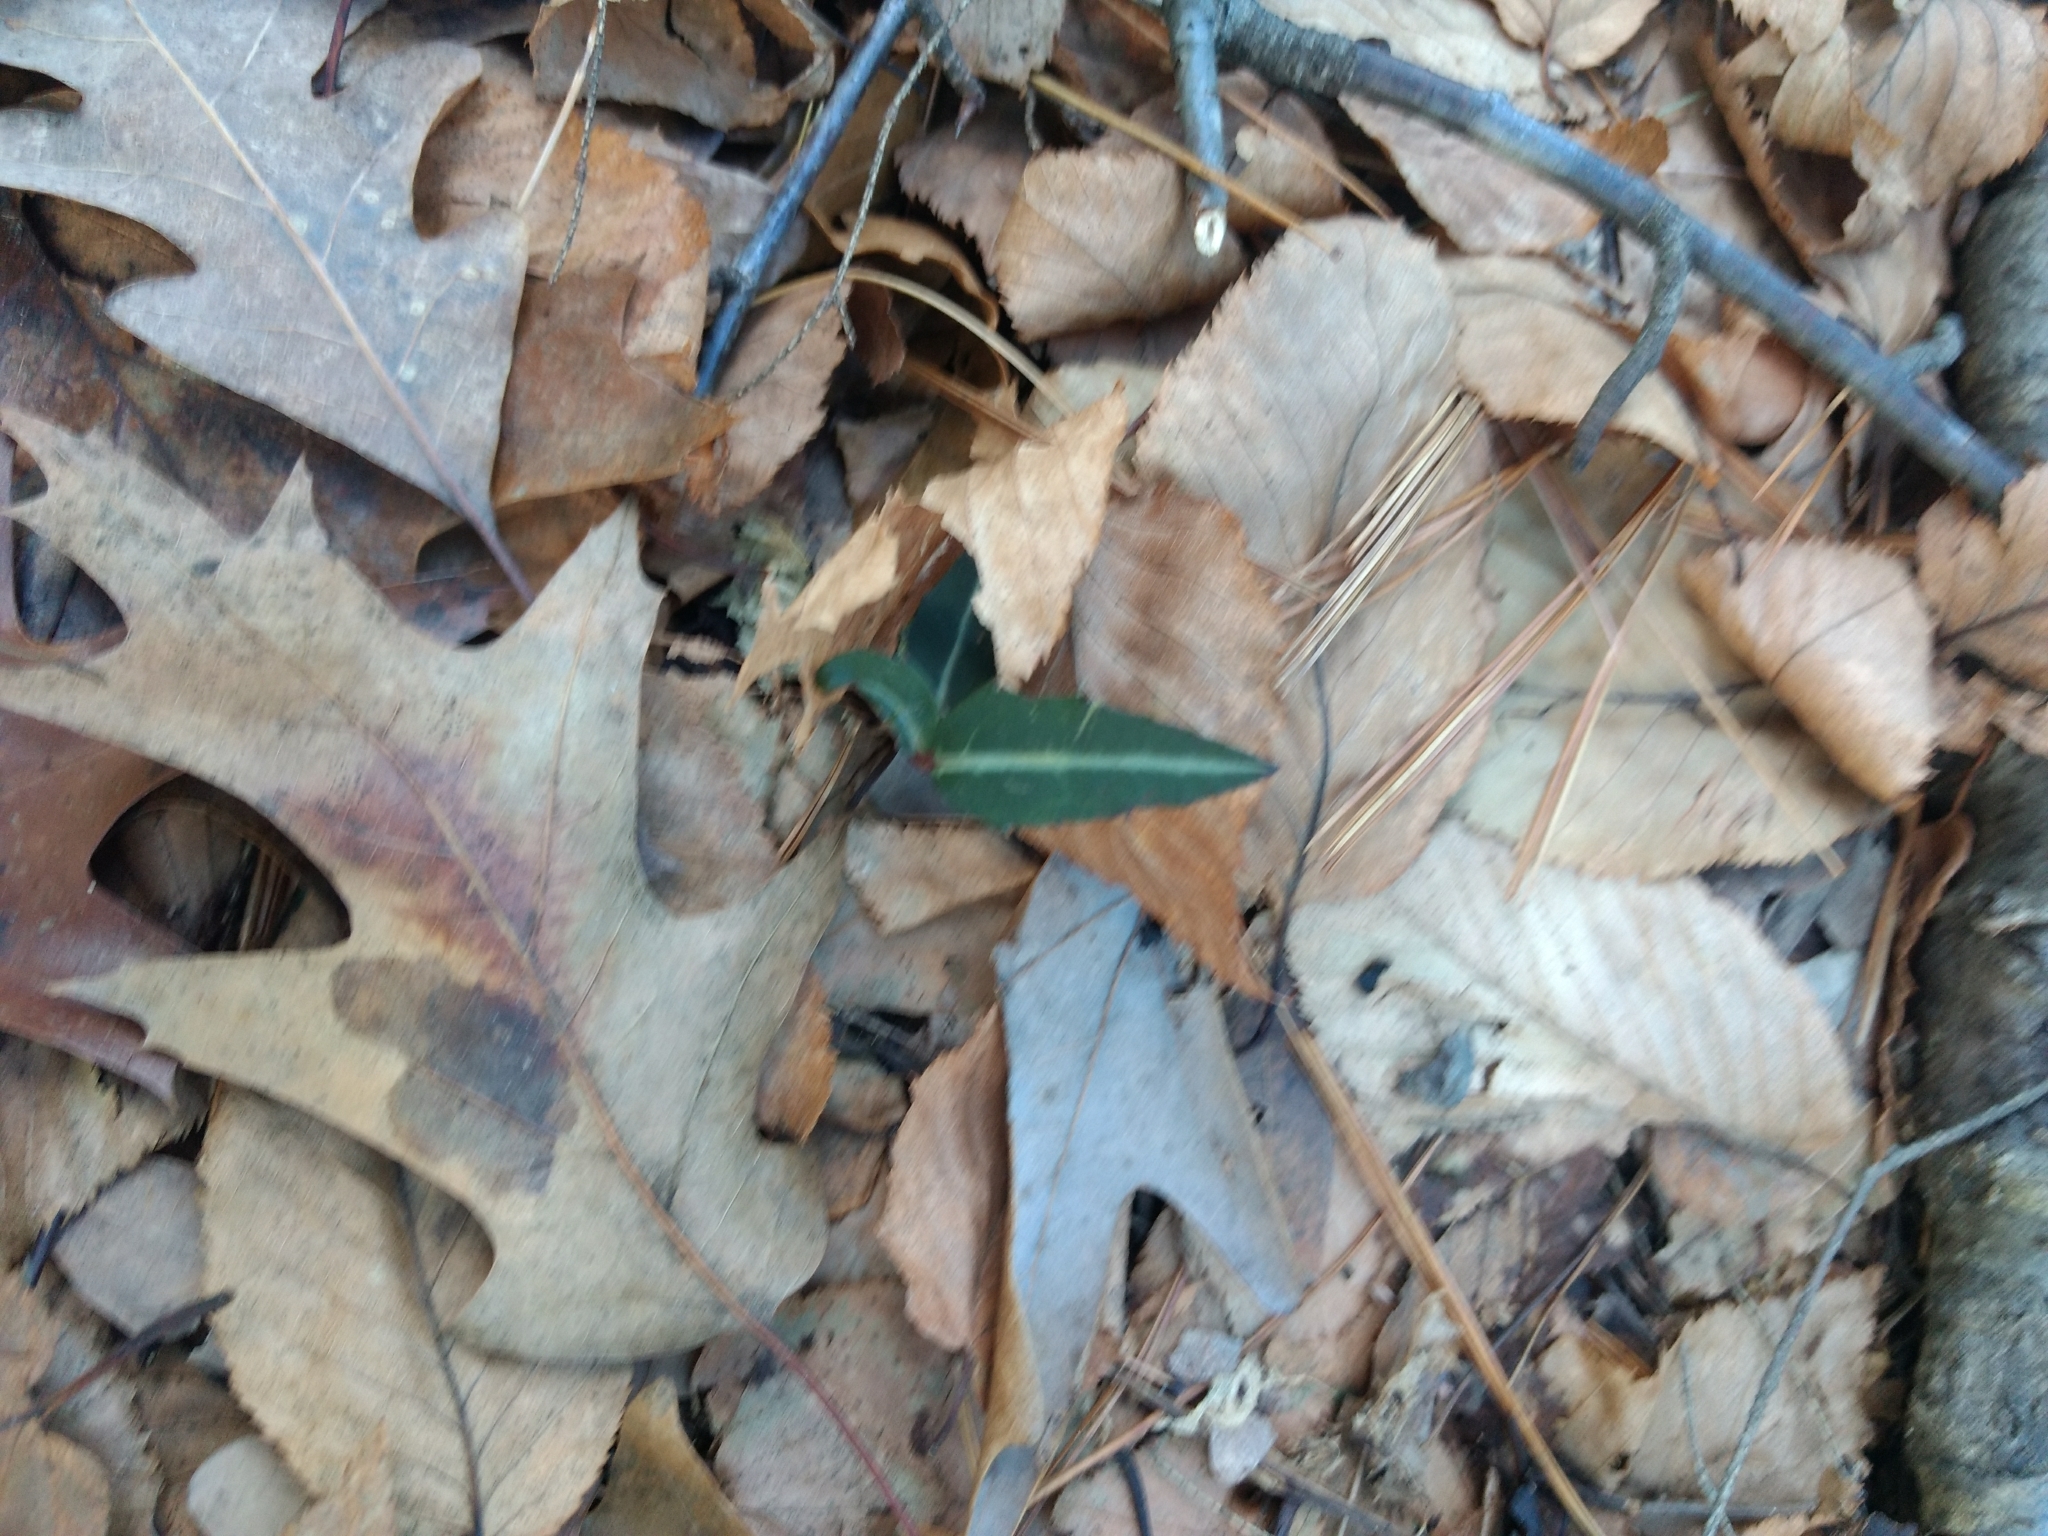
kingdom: Plantae
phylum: Tracheophyta
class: Magnoliopsida
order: Ericales
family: Ericaceae
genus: Chimaphila
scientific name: Chimaphila maculata
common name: Spotted pipsissewa
